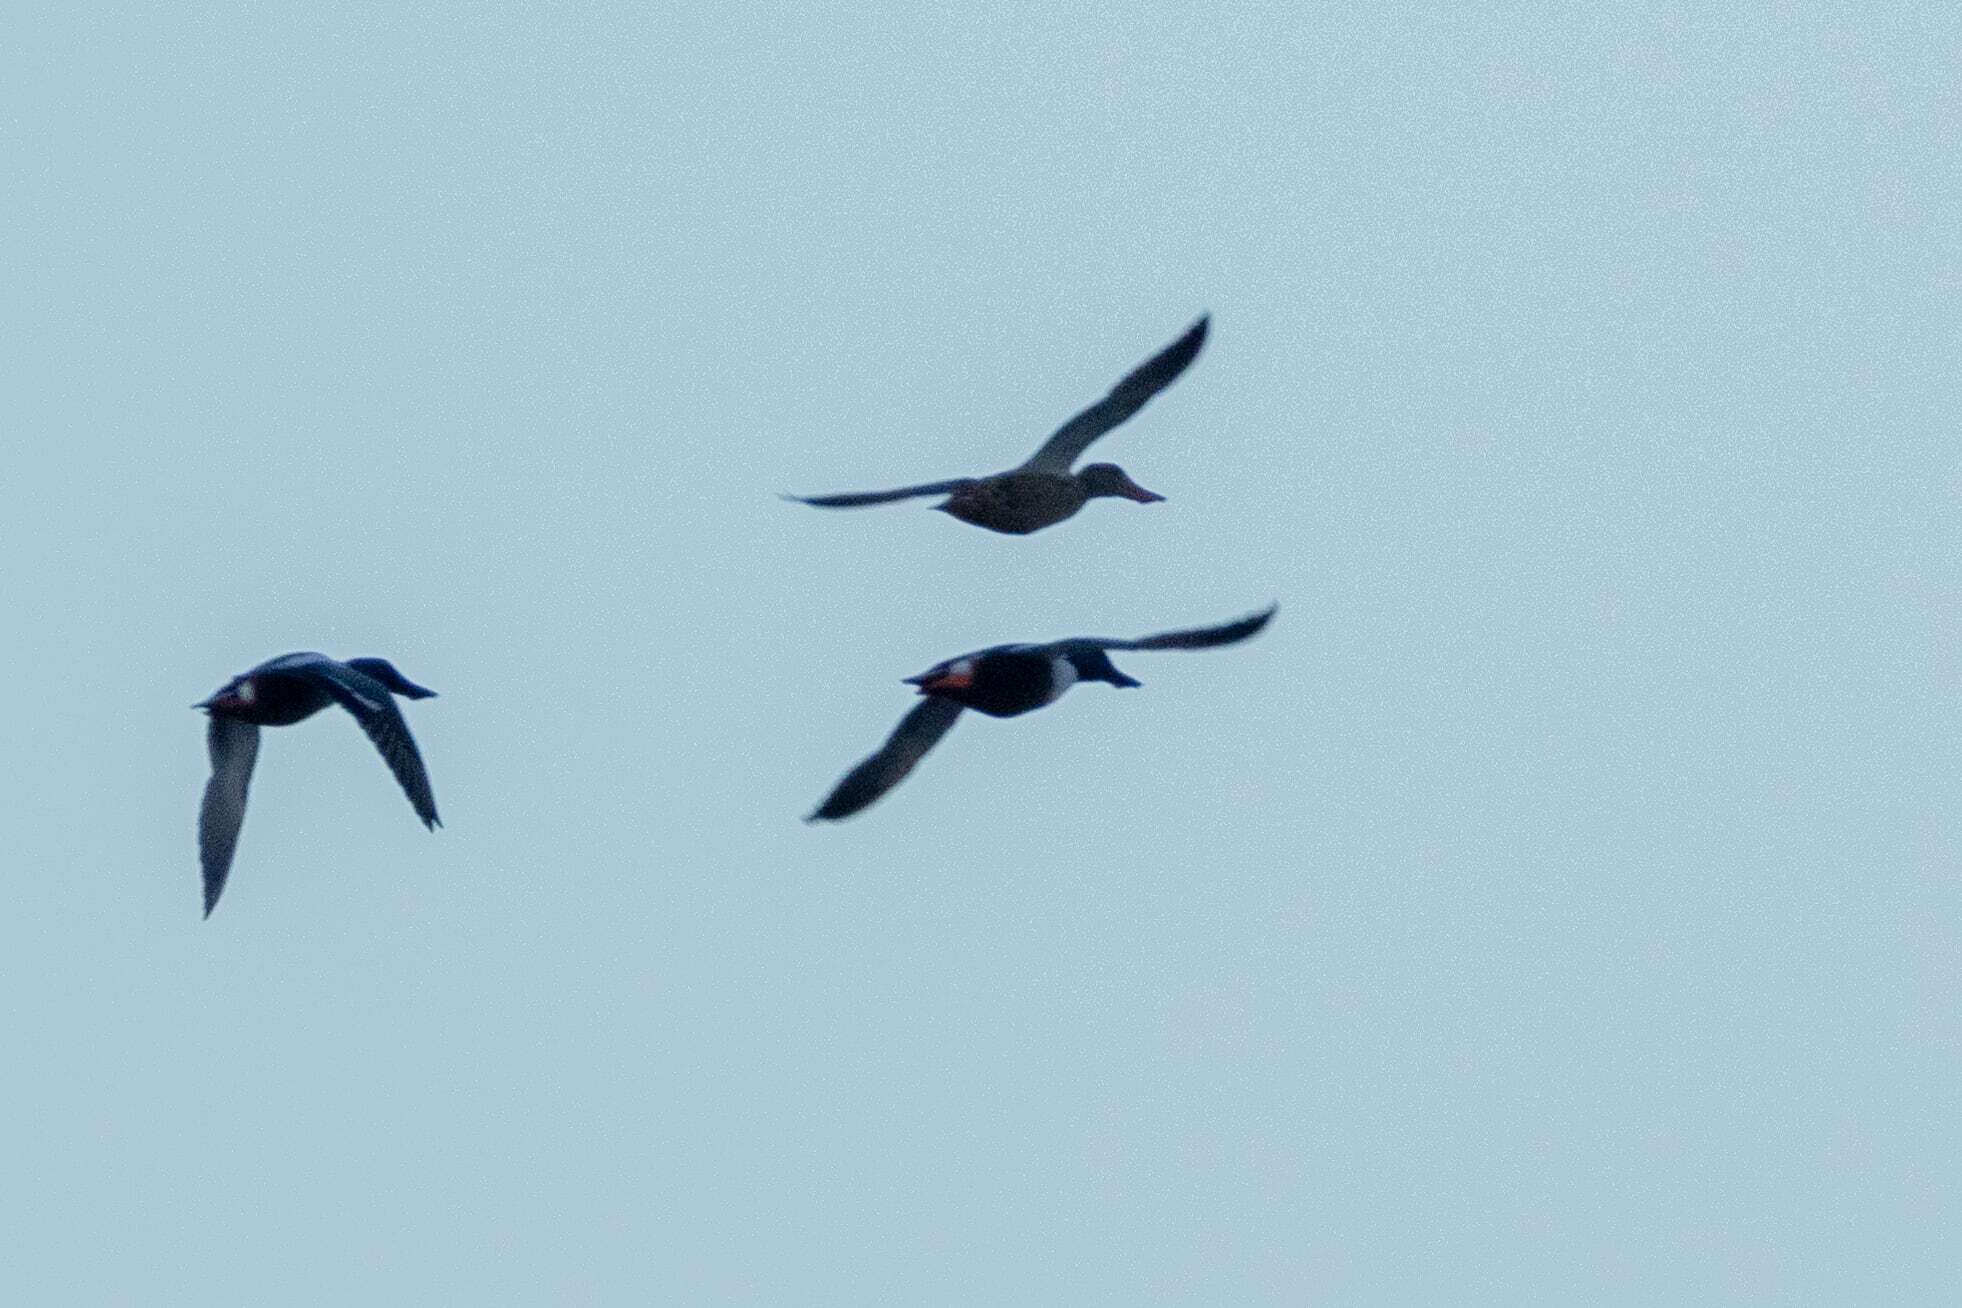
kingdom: Animalia
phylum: Chordata
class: Aves
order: Anseriformes
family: Anatidae
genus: Spatula
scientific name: Spatula clypeata
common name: Northern shoveler
